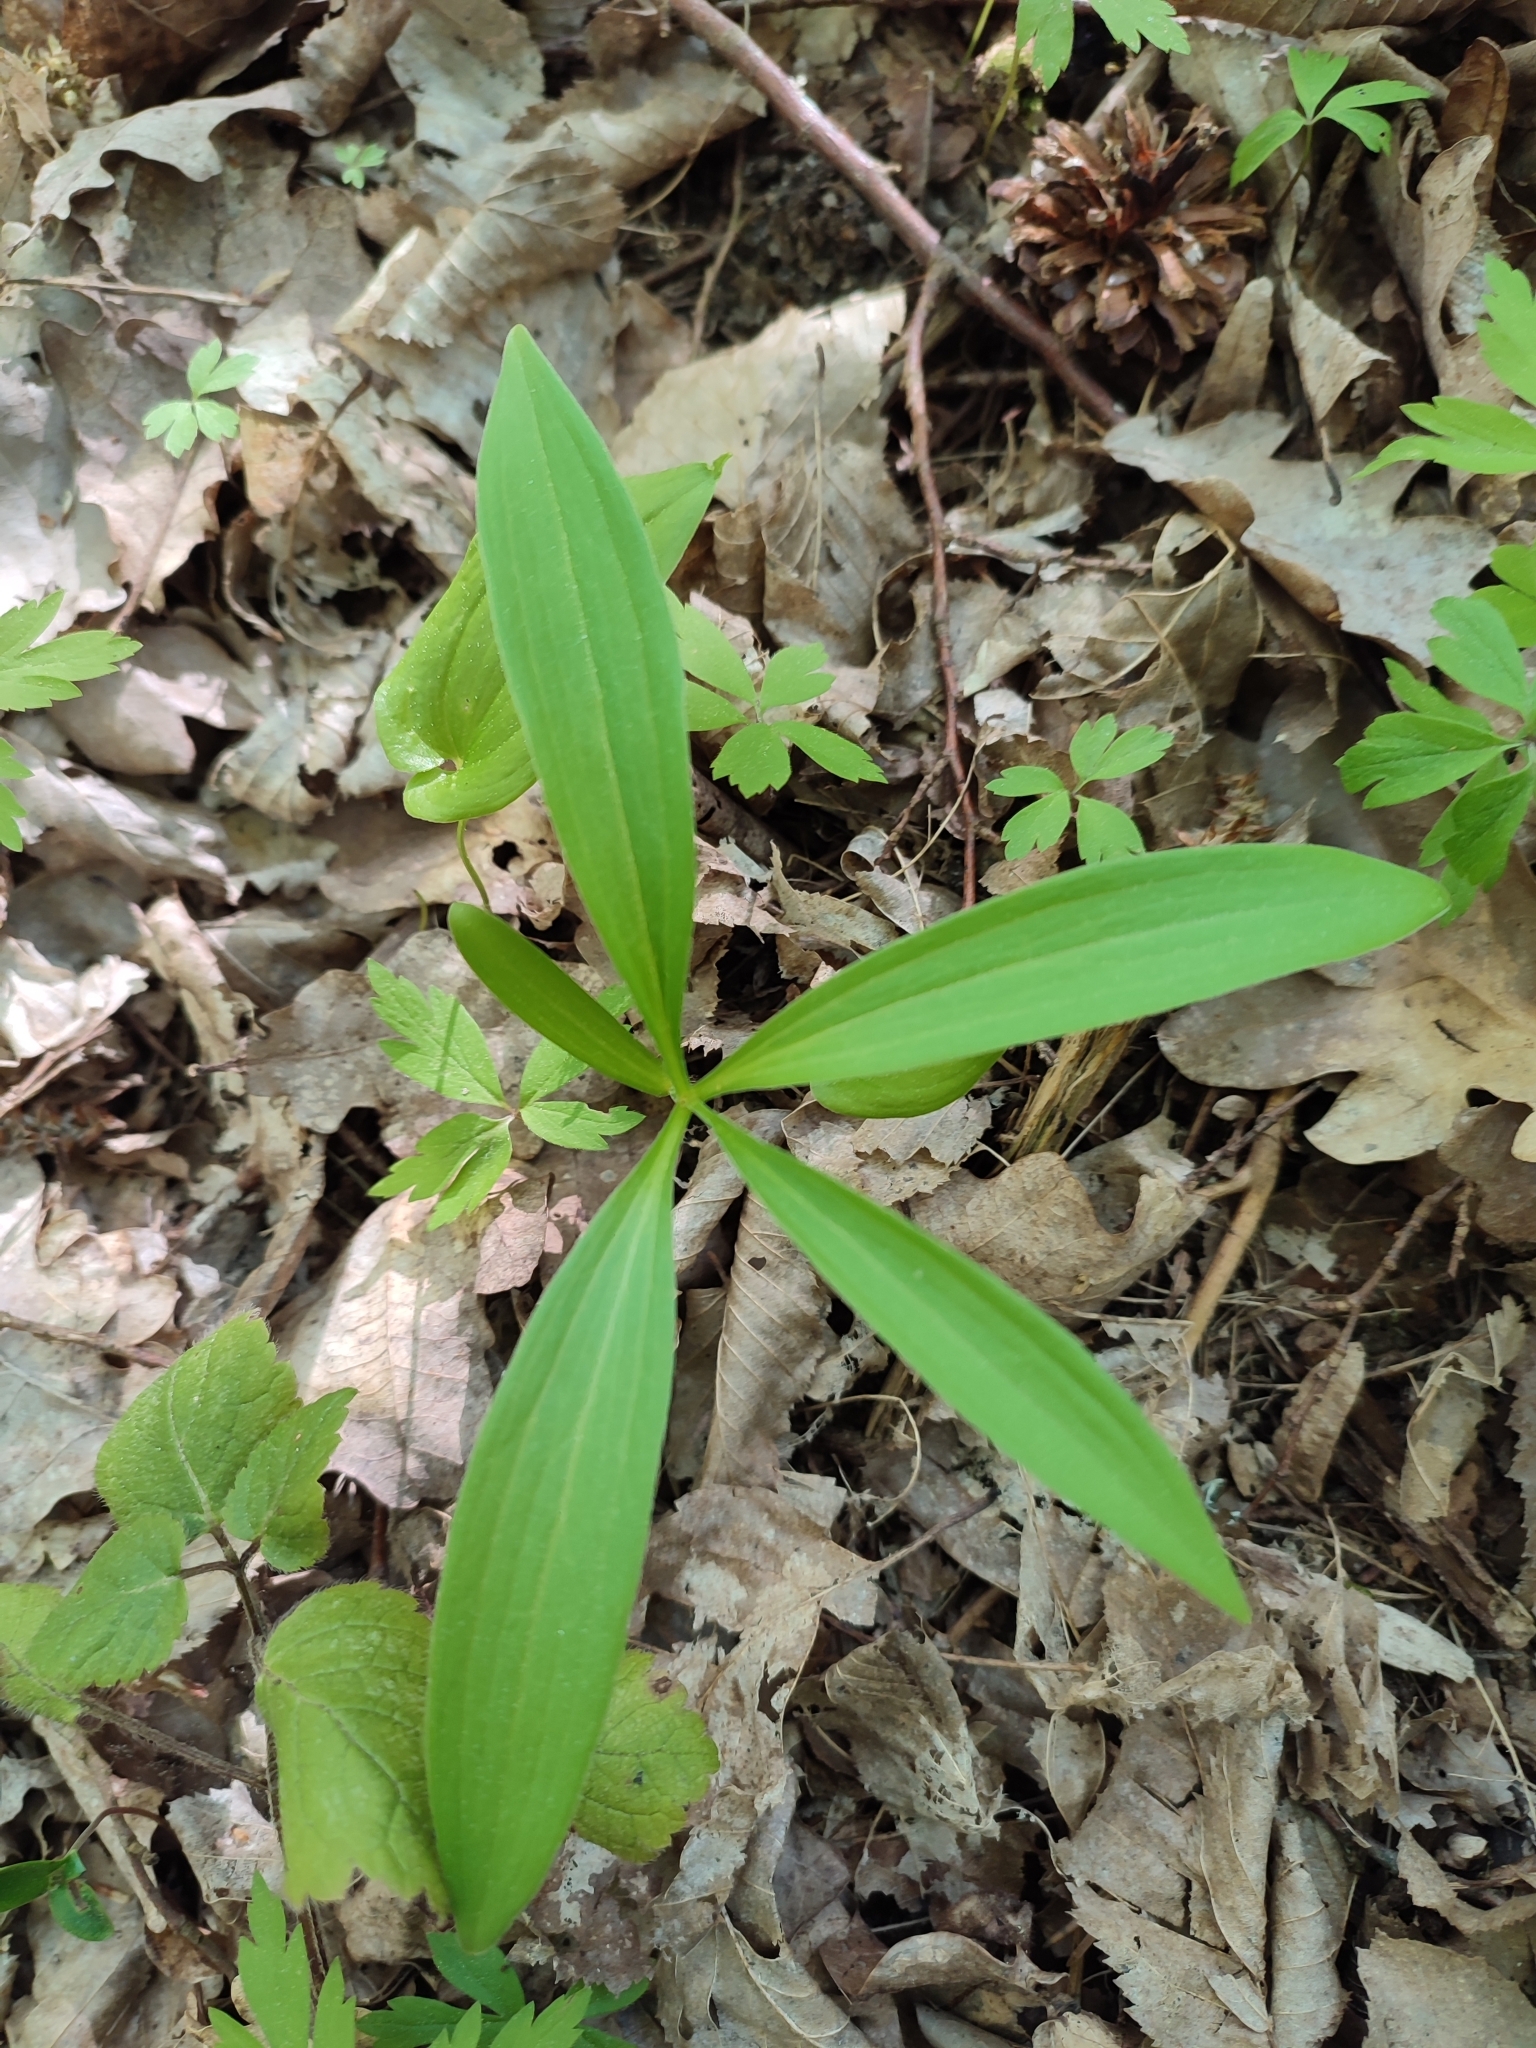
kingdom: Plantae
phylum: Tracheophyta
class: Liliopsida
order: Liliales
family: Liliaceae
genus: Lilium
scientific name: Lilium martagon
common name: Martagon lily
